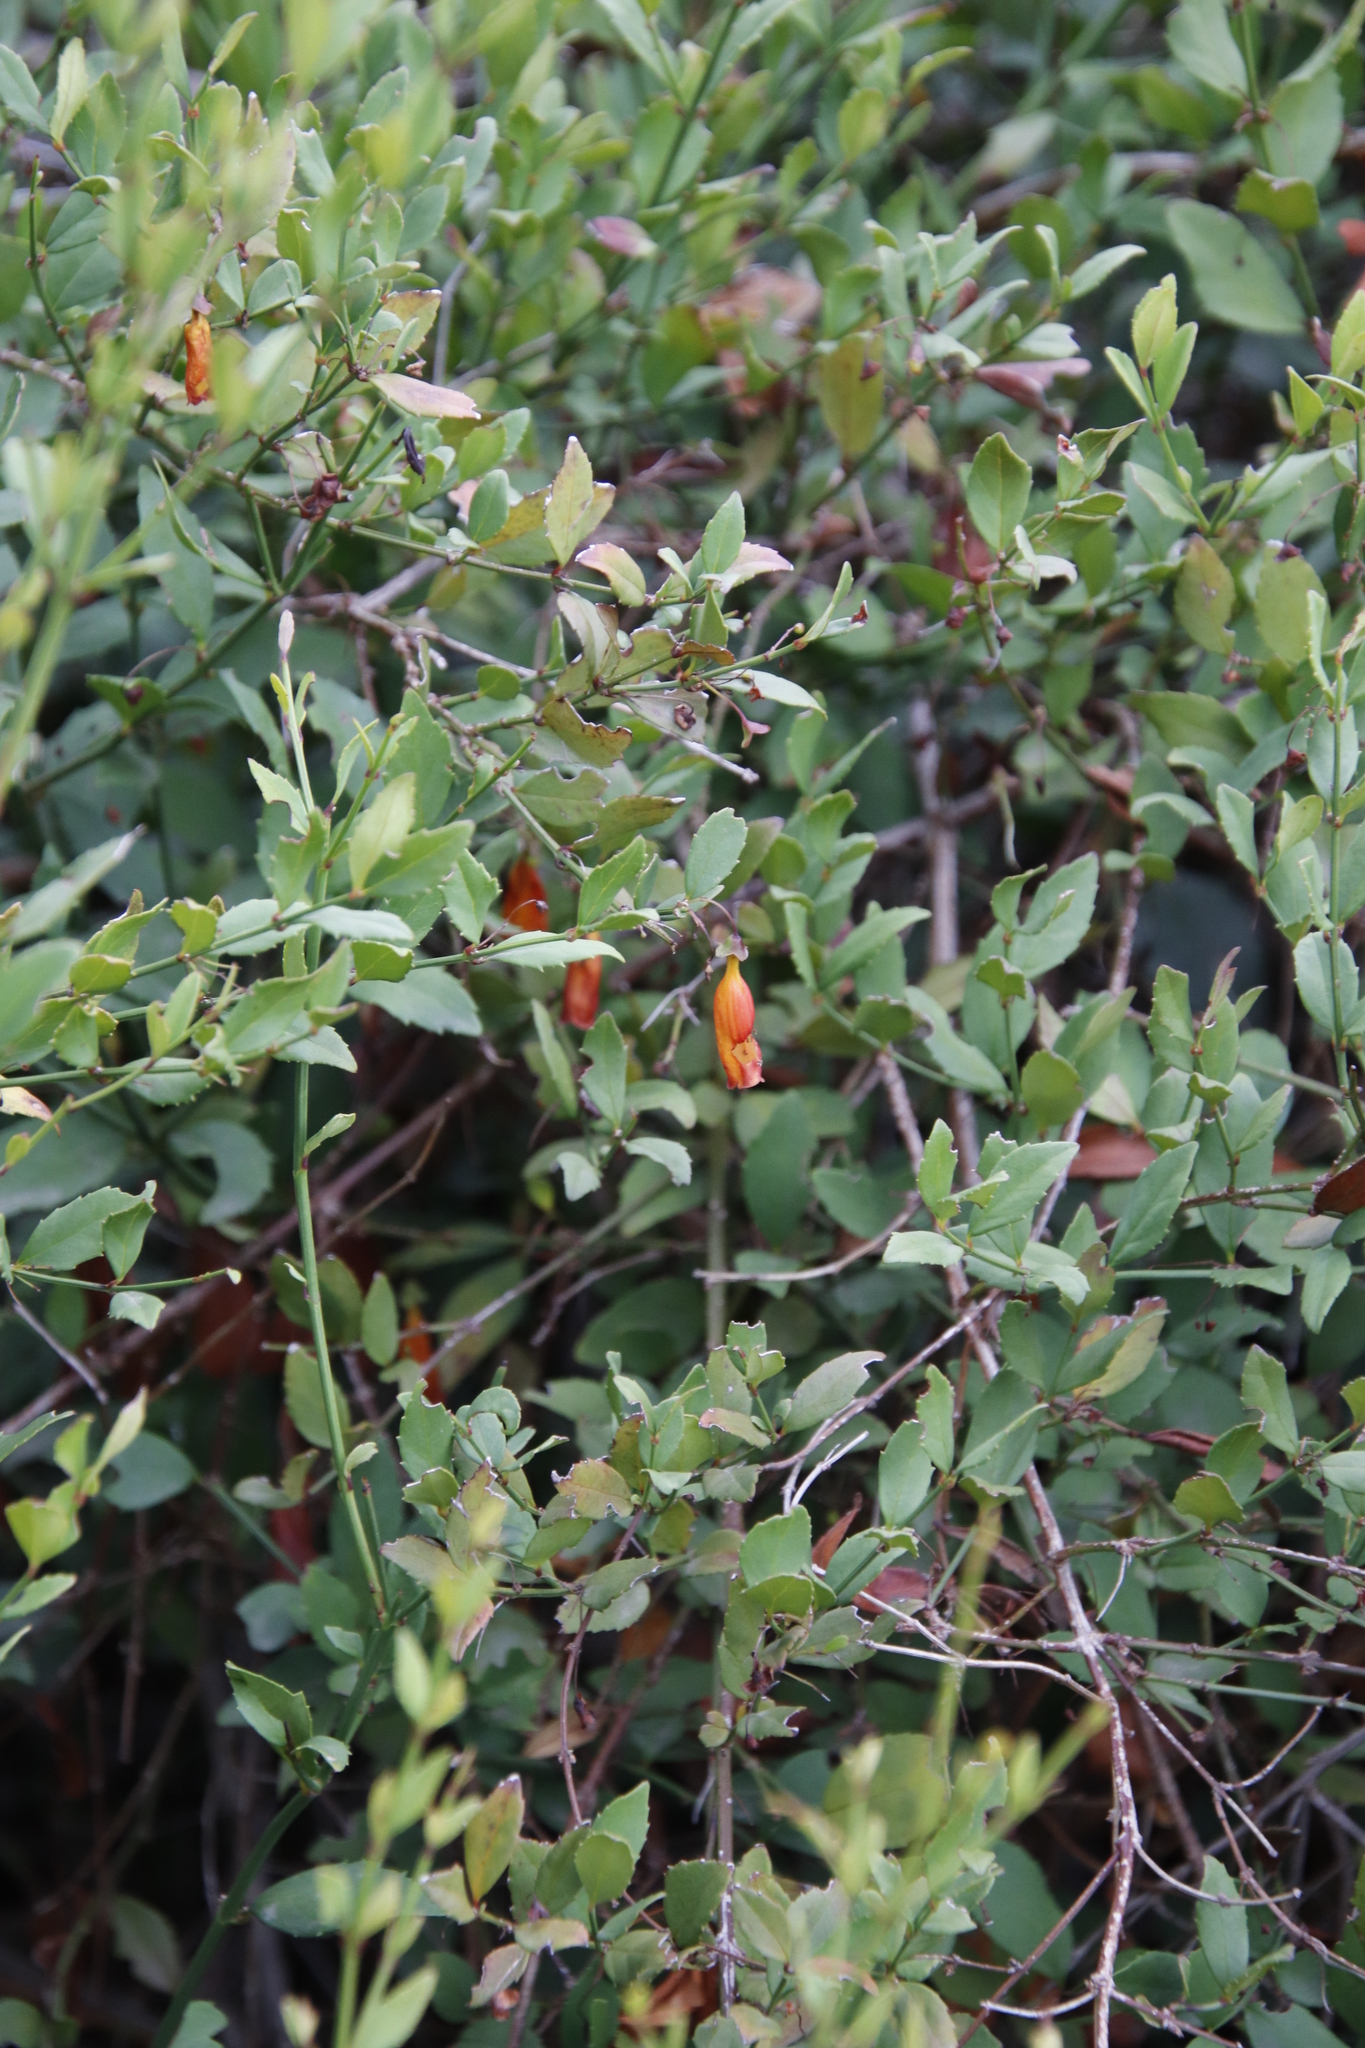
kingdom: Plantae
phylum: Tracheophyta
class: Magnoliopsida
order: Lamiales
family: Stilbaceae
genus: Halleria
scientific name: Halleria elliptica
